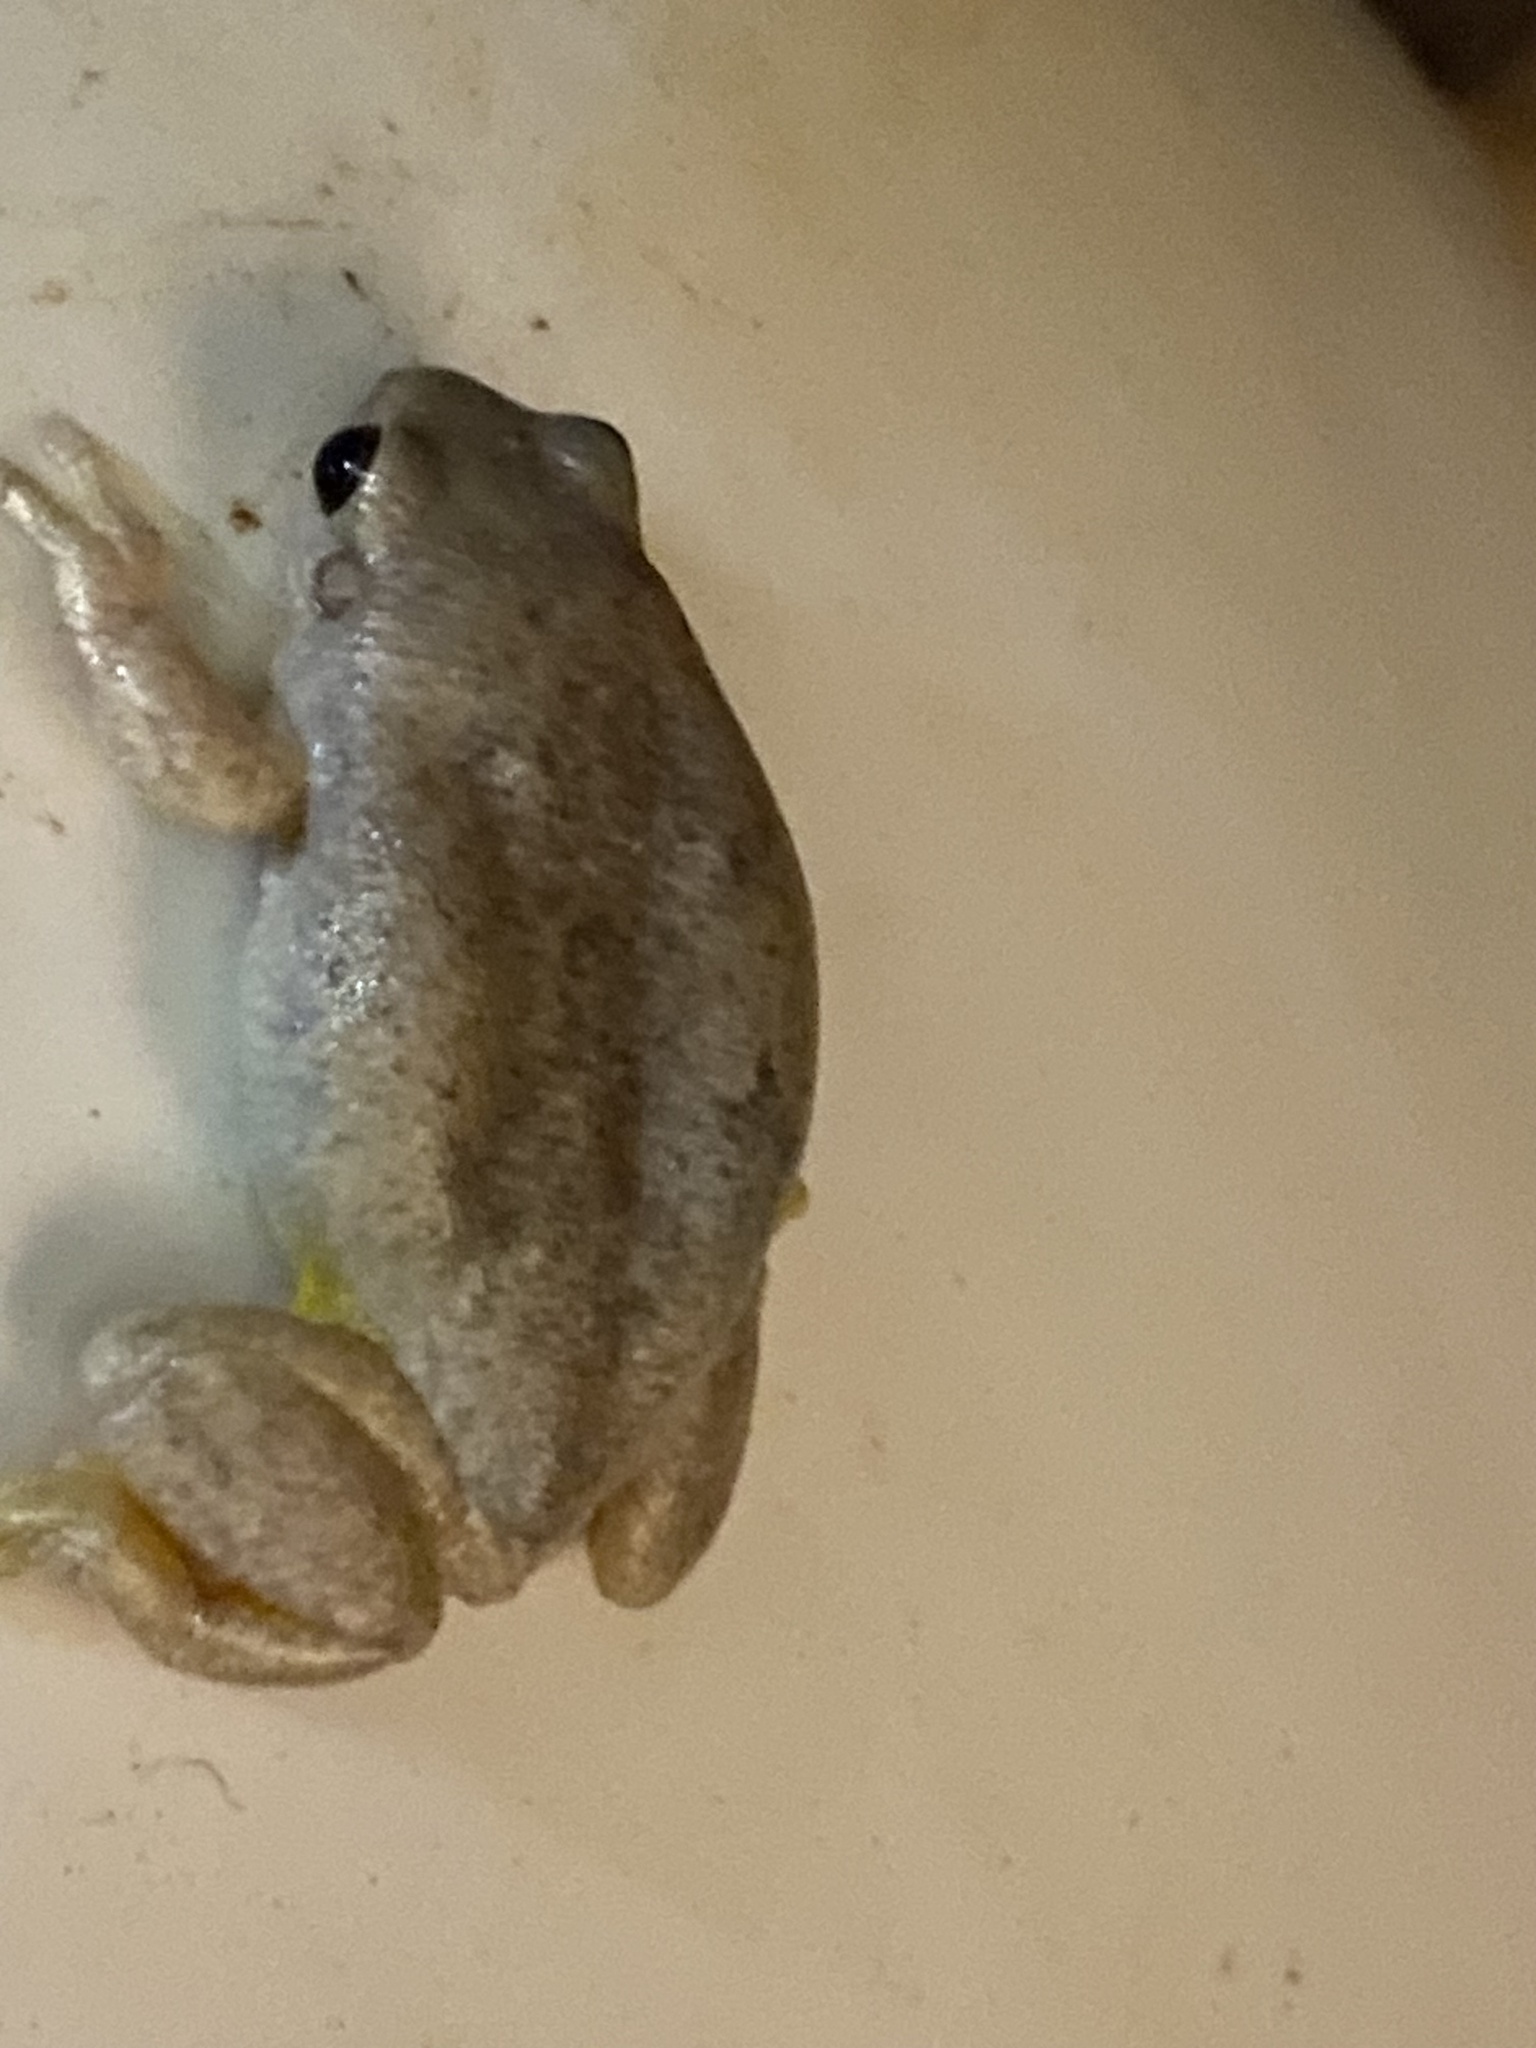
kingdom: Animalia
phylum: Chordata
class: Amphibia
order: Anura
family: Pelodryadidae
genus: Litoria
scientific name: Litoria rubella
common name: Desert tree frog
